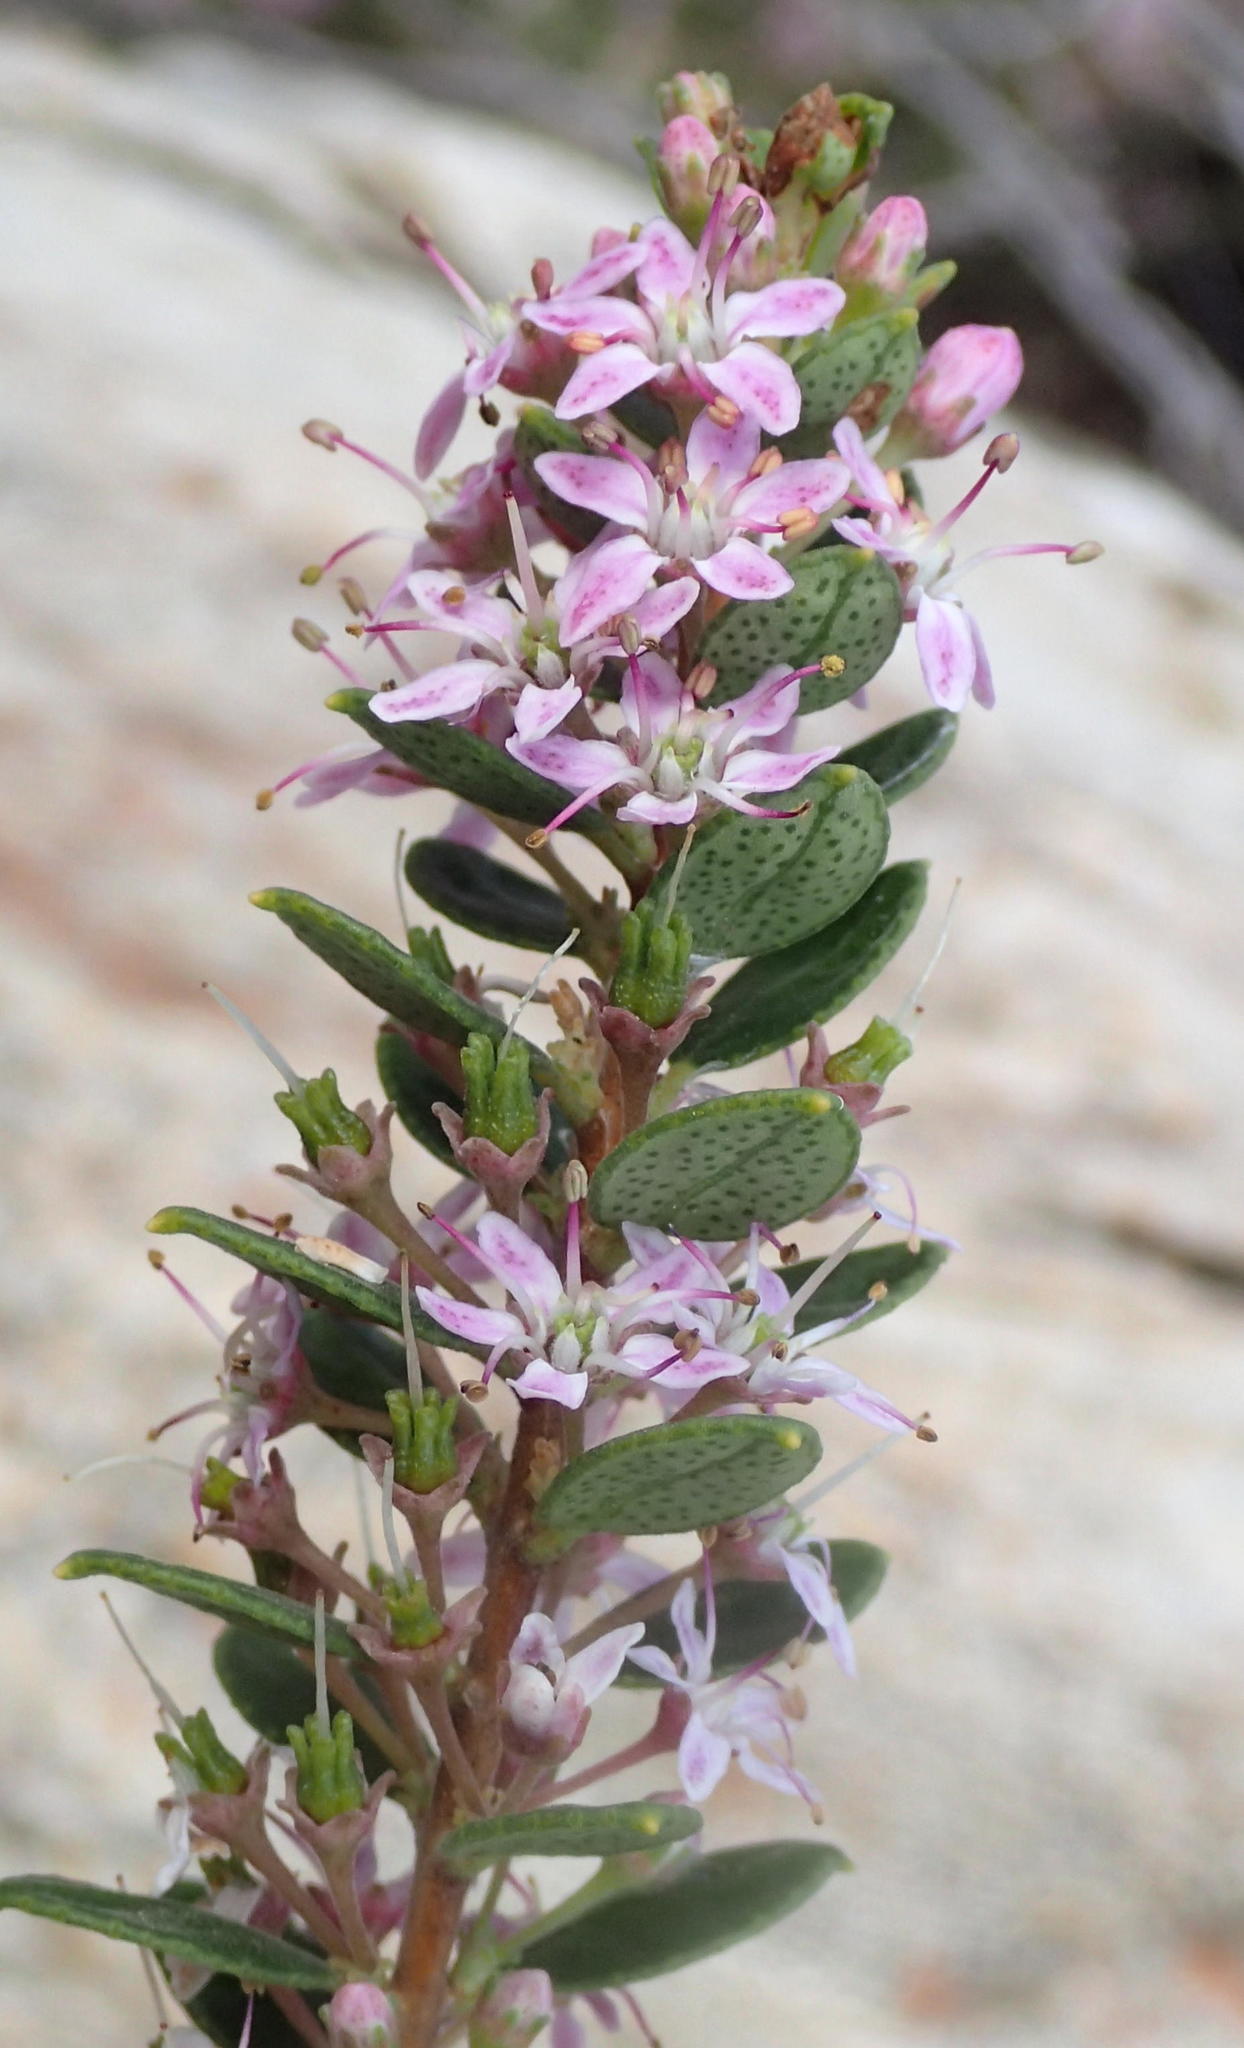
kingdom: Plantae
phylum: Tracheophyta
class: Magnoliopsida
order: Sapindales
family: Rutaceae
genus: Agathosma
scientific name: Agathosma ovata
